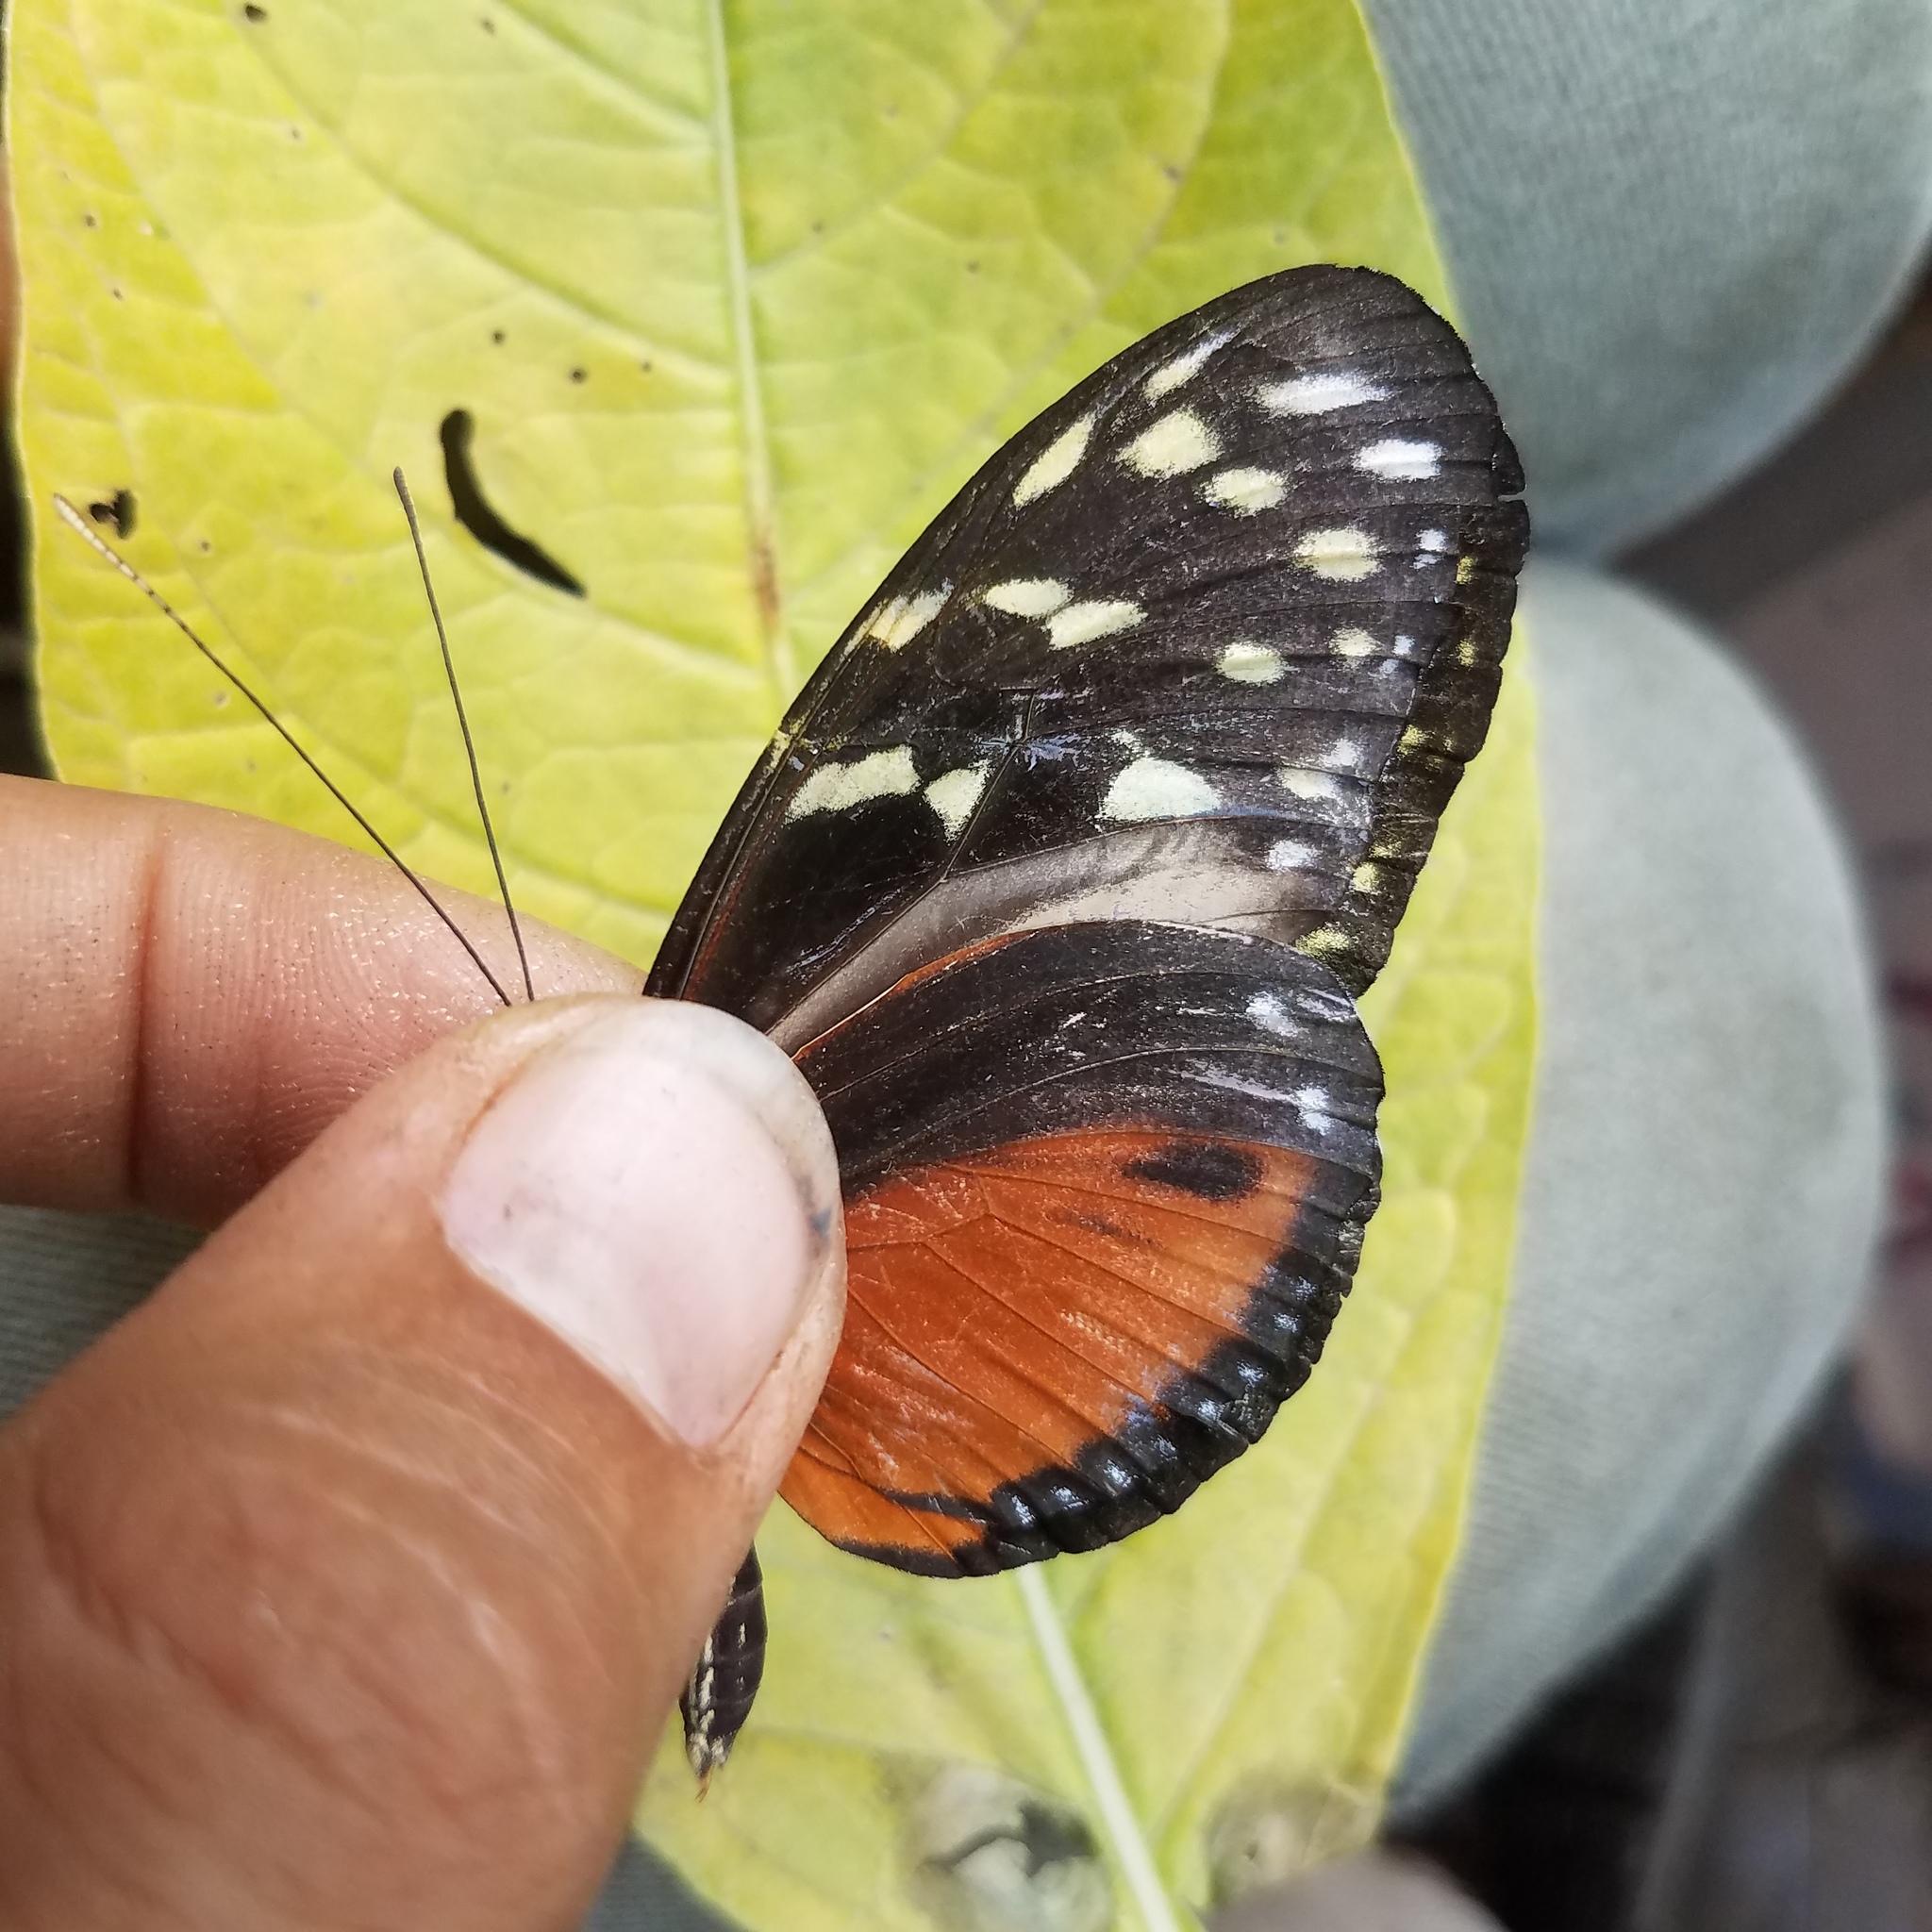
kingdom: Animalia
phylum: Arthropoda
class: Insecta
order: Lepidoptera
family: Nymphalidae
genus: Heliconius
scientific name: Heliconius hecale
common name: Tiger longwing
